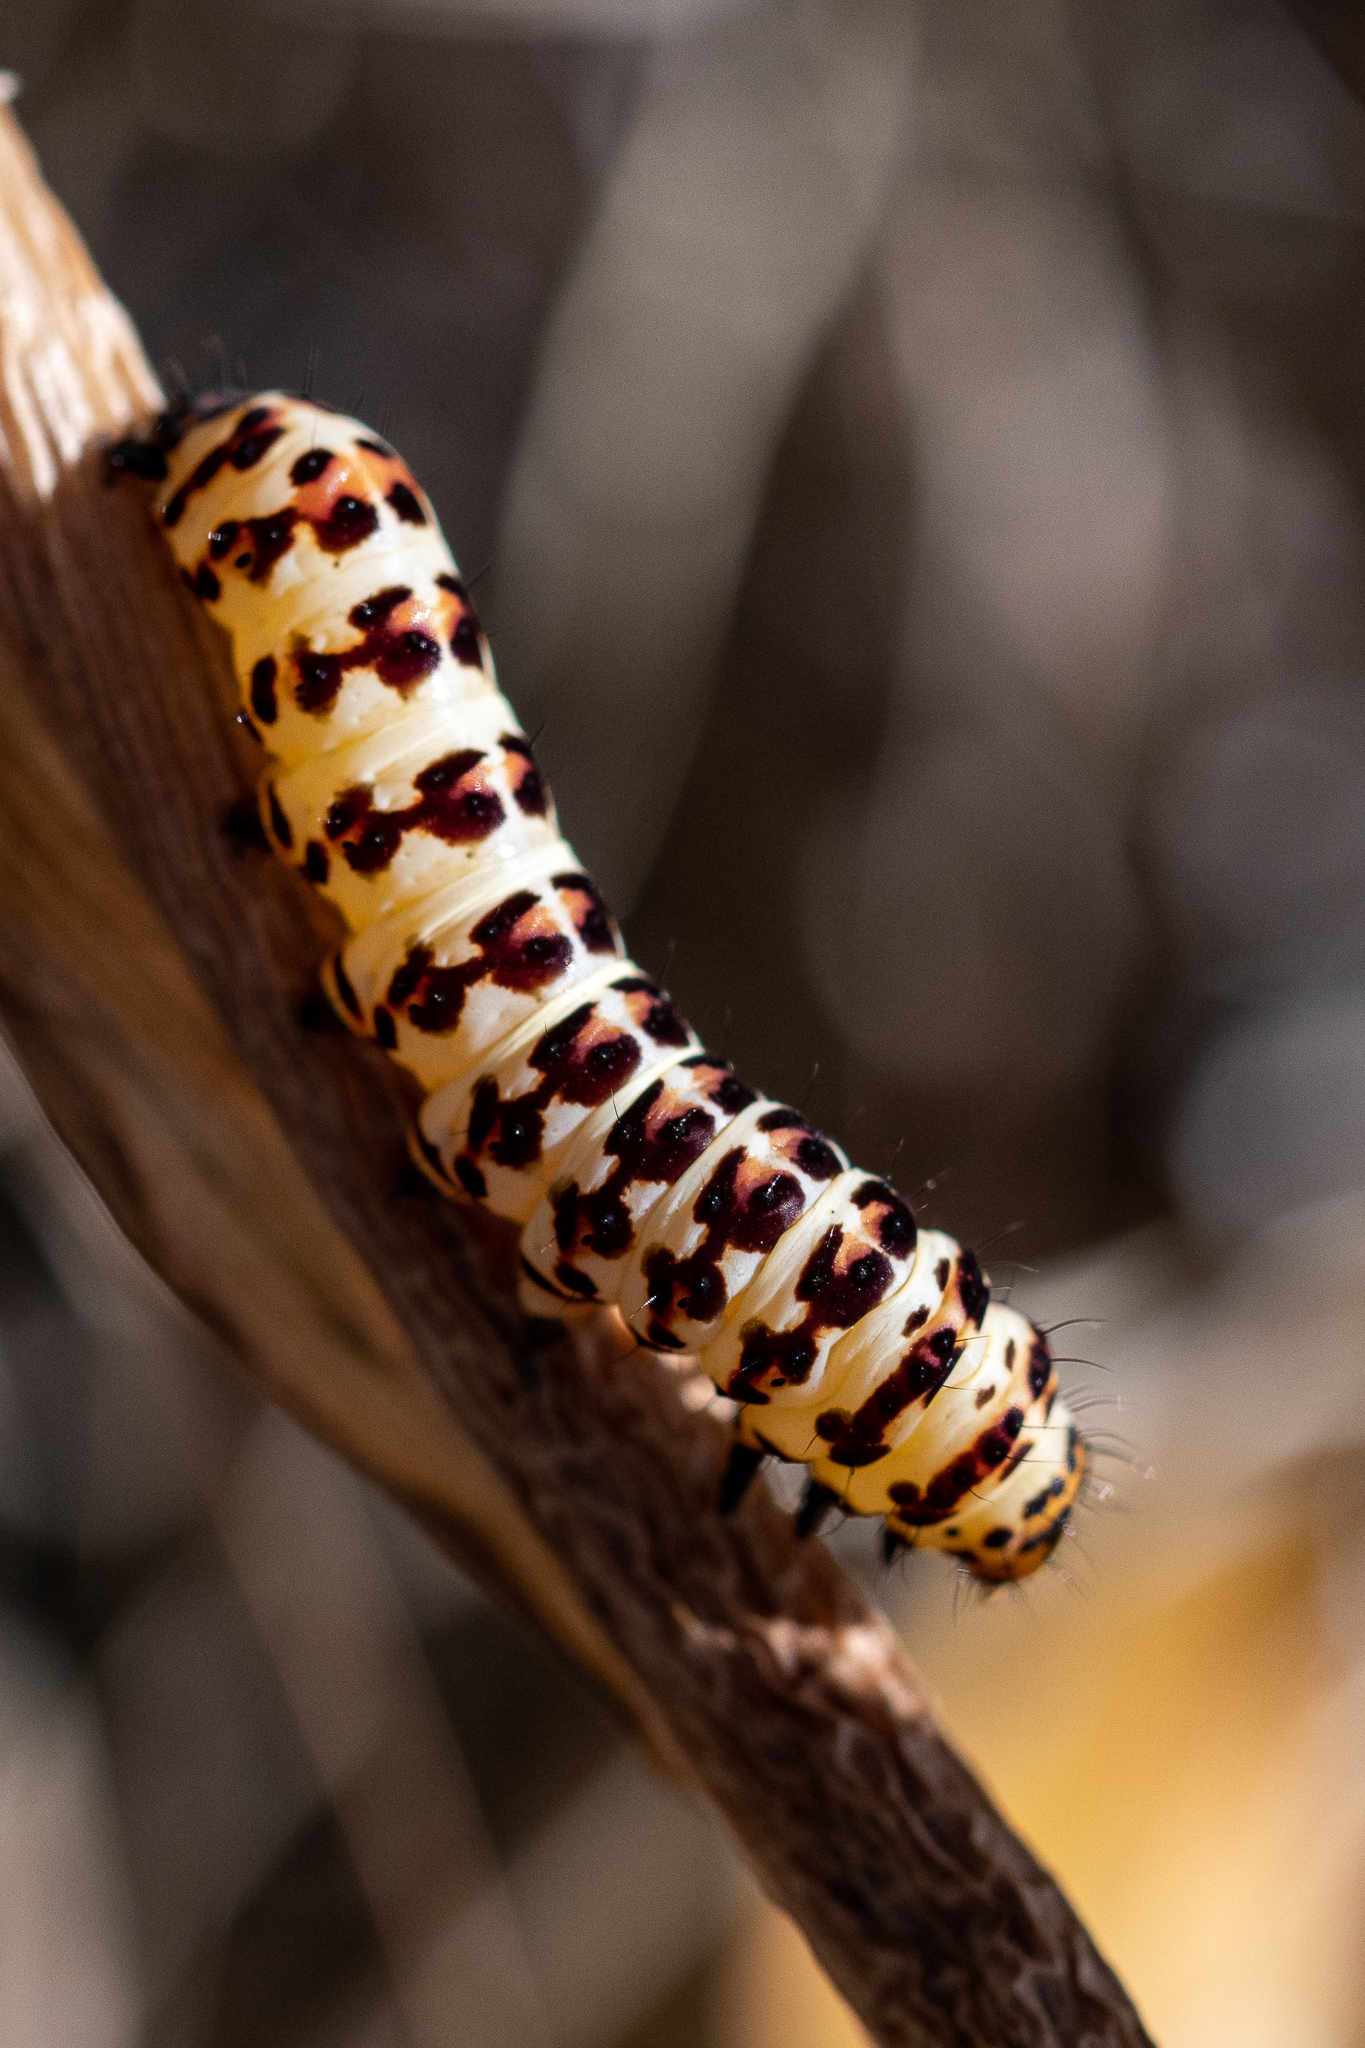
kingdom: Animalia
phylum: Arthropoda
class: Insecta
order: Lepidoptera
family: Noctuidae
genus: Diaphone
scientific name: Diaphone eumela
